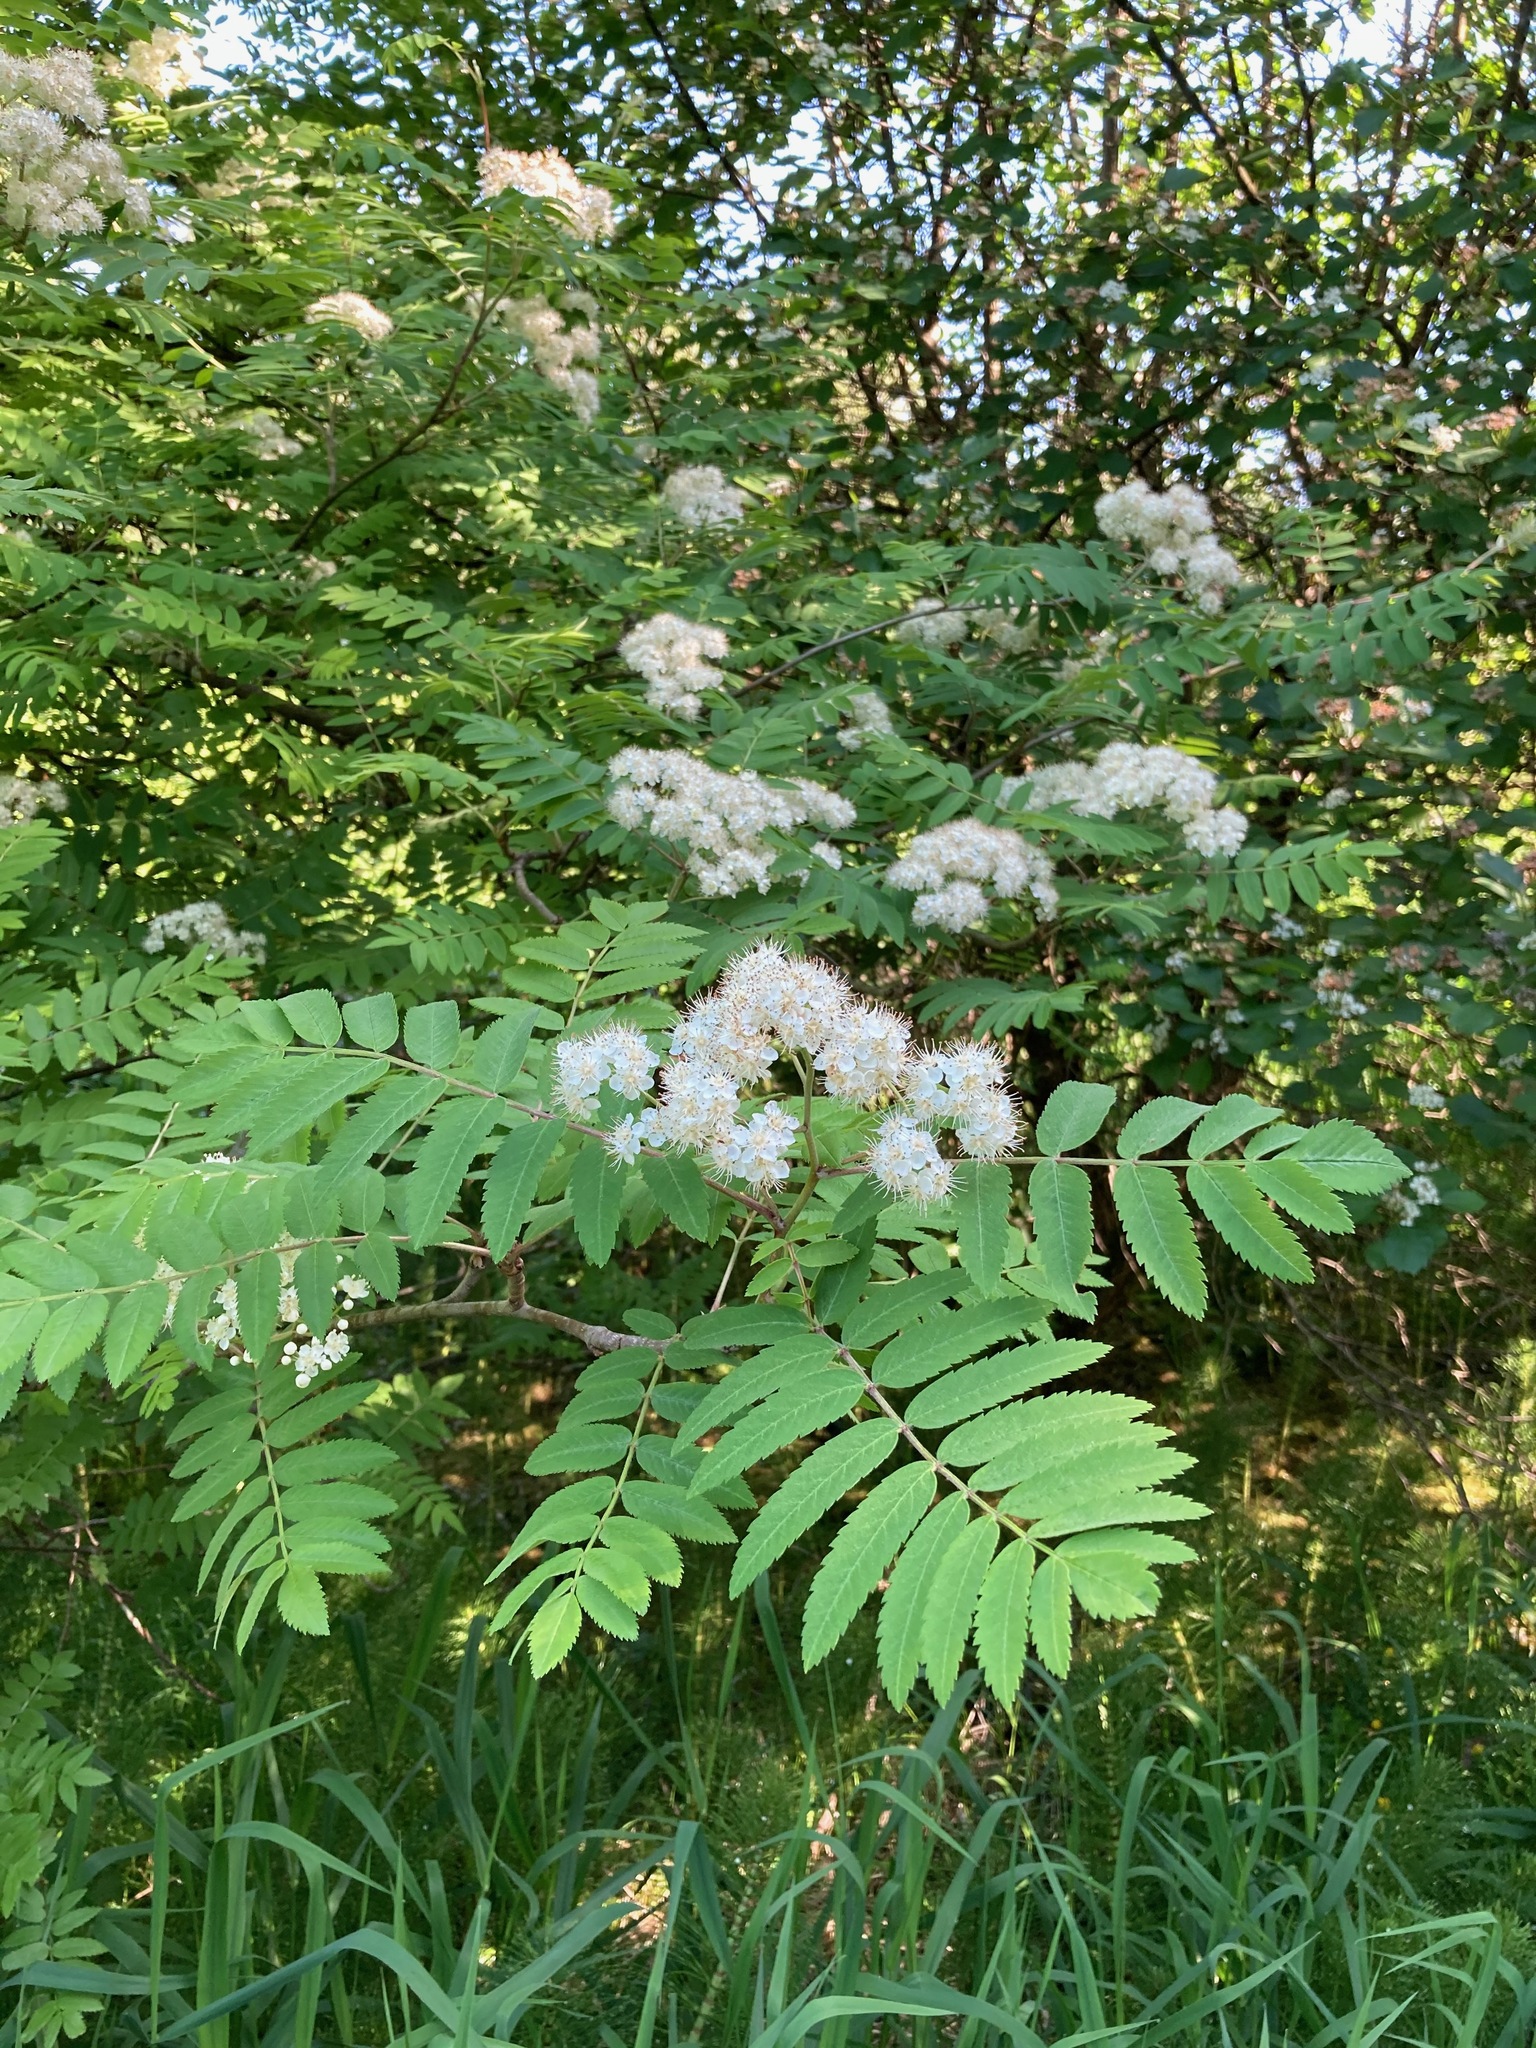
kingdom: Plantae
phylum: Tracheophyta
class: Magnoliopsida
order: Rosales
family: Rosaceae
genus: Sorbus
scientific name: Sorbus aucuparia
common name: Rowan
